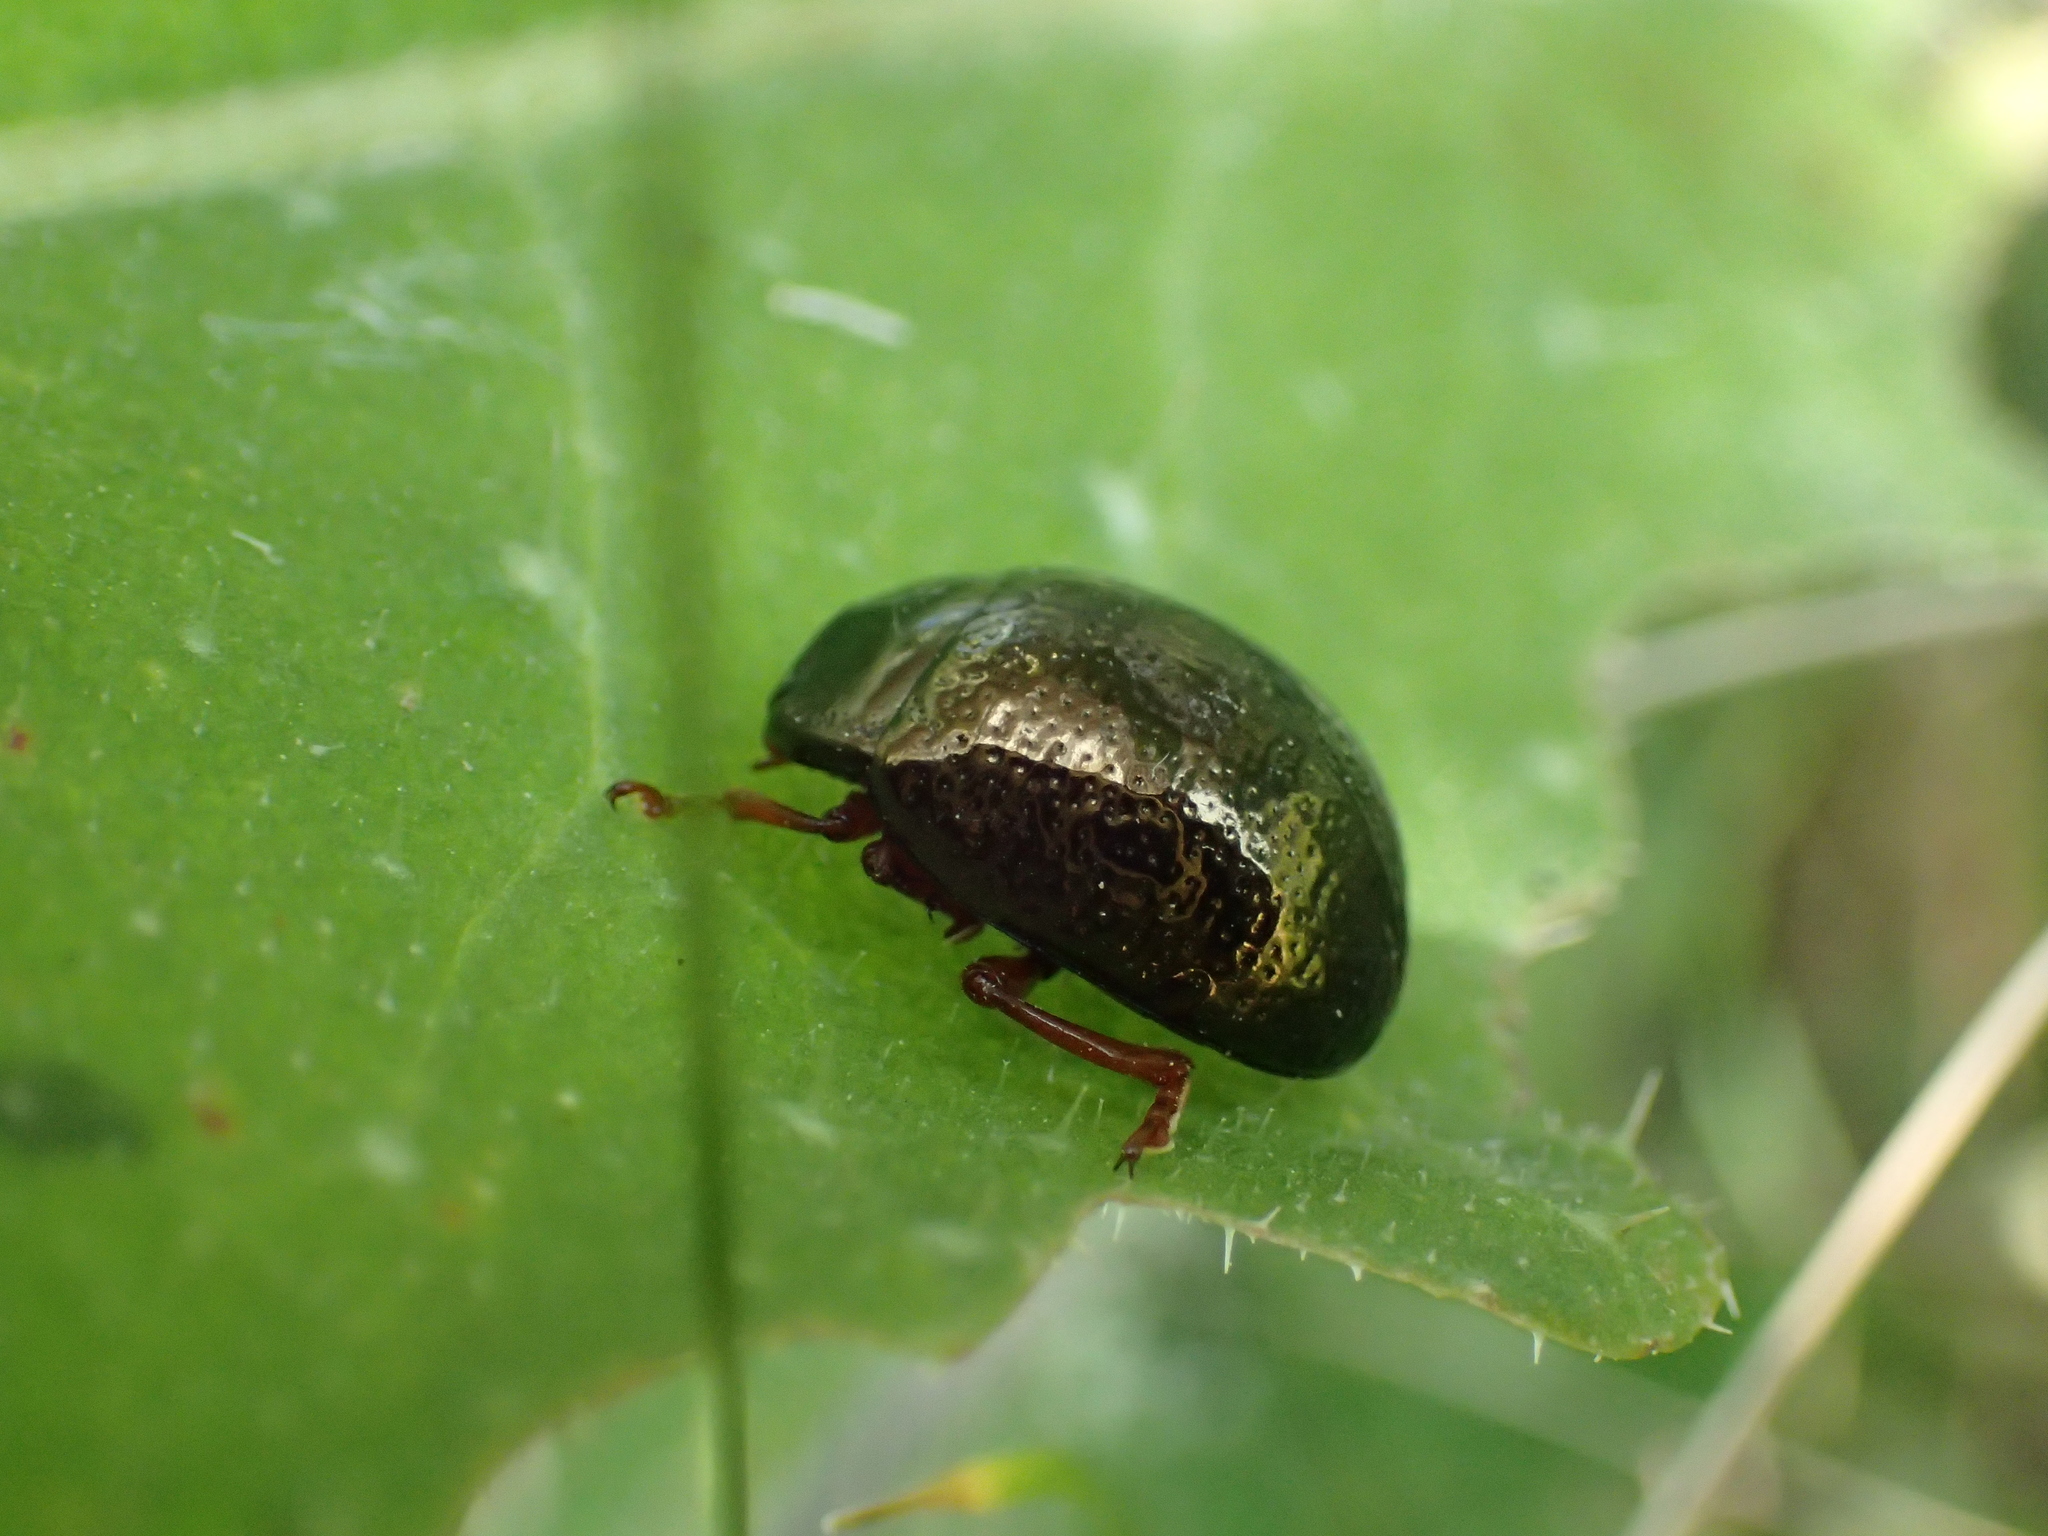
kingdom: Animalia
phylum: Arthropoda
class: Insecta
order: Coleoptera
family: Chrysomelidae
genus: Chrysolina
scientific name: Chrysolina bankii
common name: Leaf beetle
